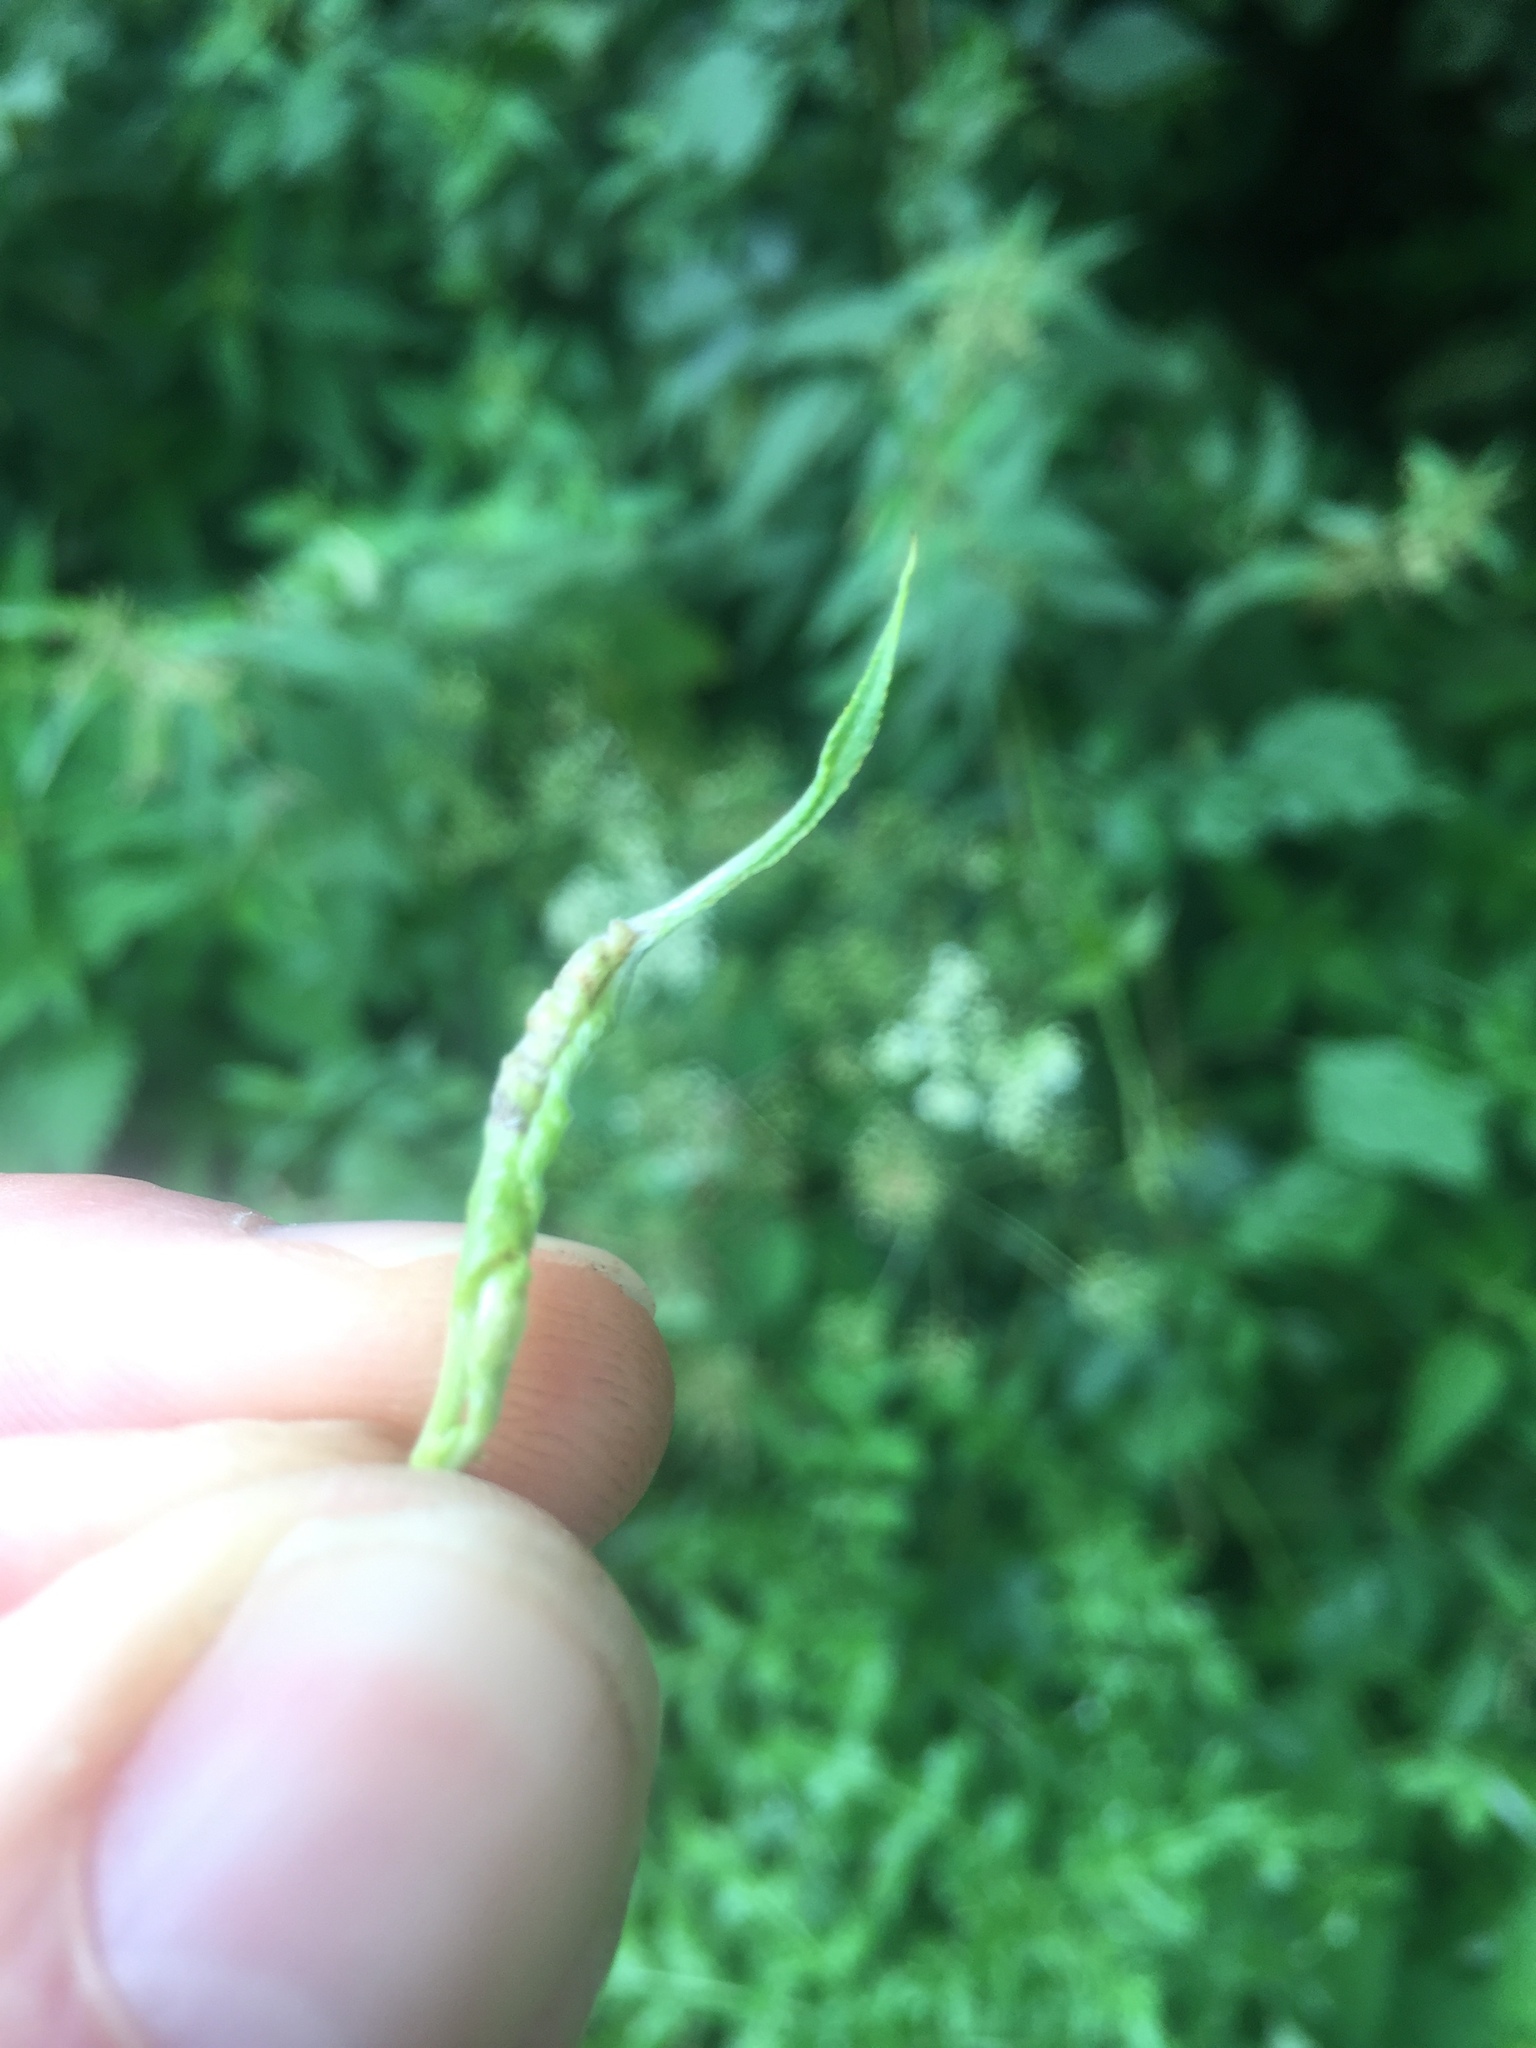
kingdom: Animalia
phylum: Arthropoda
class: Insecta
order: Diptera
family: Cecidomyiidae
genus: Rabdophaga
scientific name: Rabdophaga terminalis
